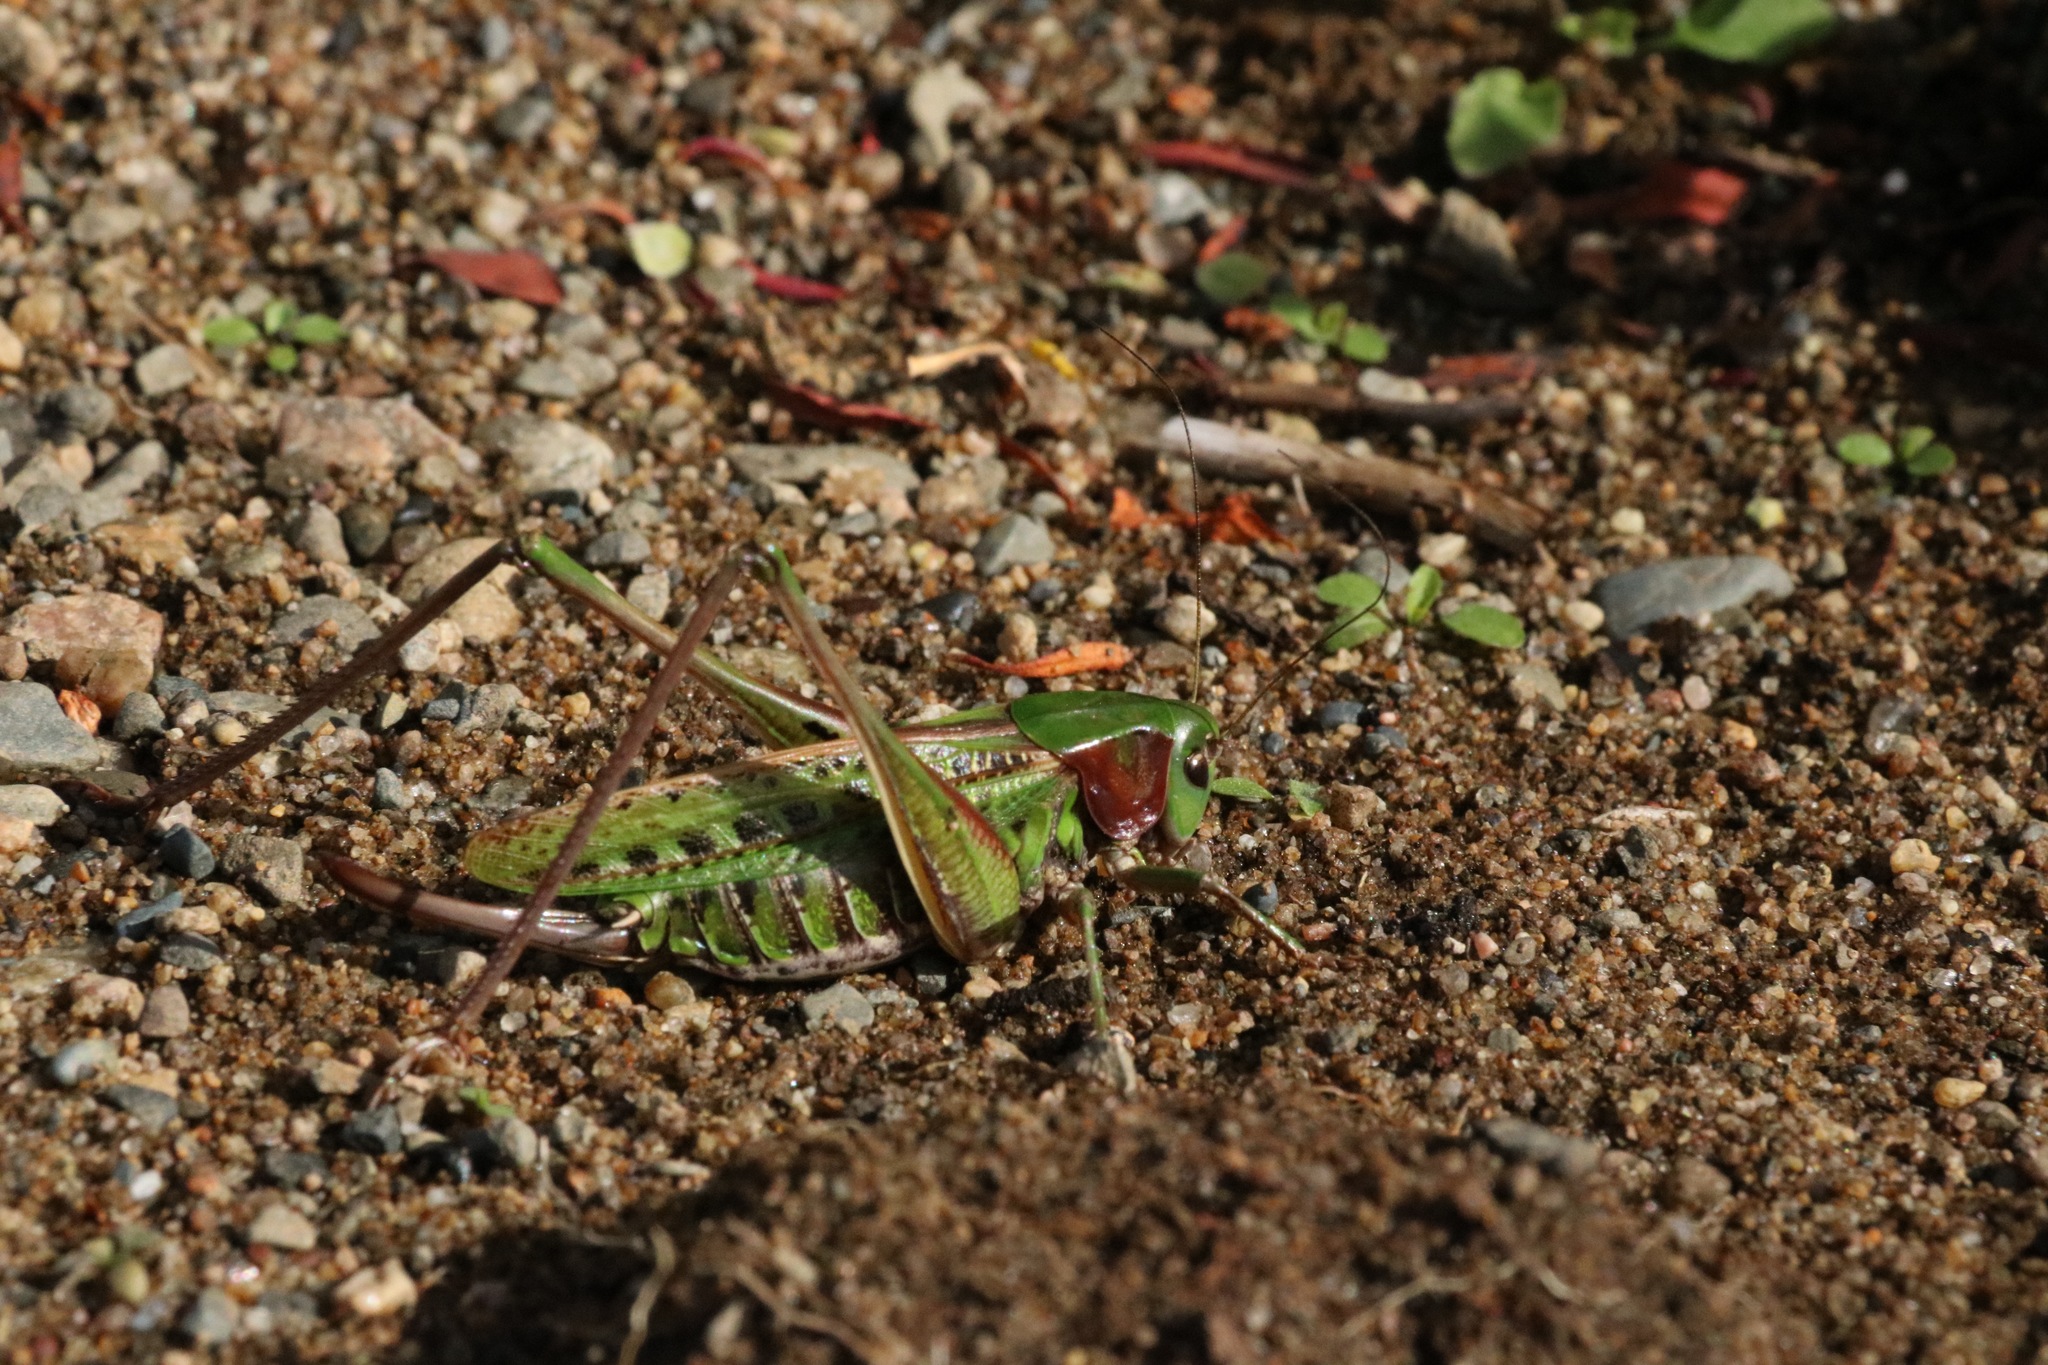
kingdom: Animalia
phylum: Arthropoda
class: Insecta
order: Orthoptera
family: Tettigoniidae
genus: Decticus
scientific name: Decticus verrucivorus
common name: Wart-biter
